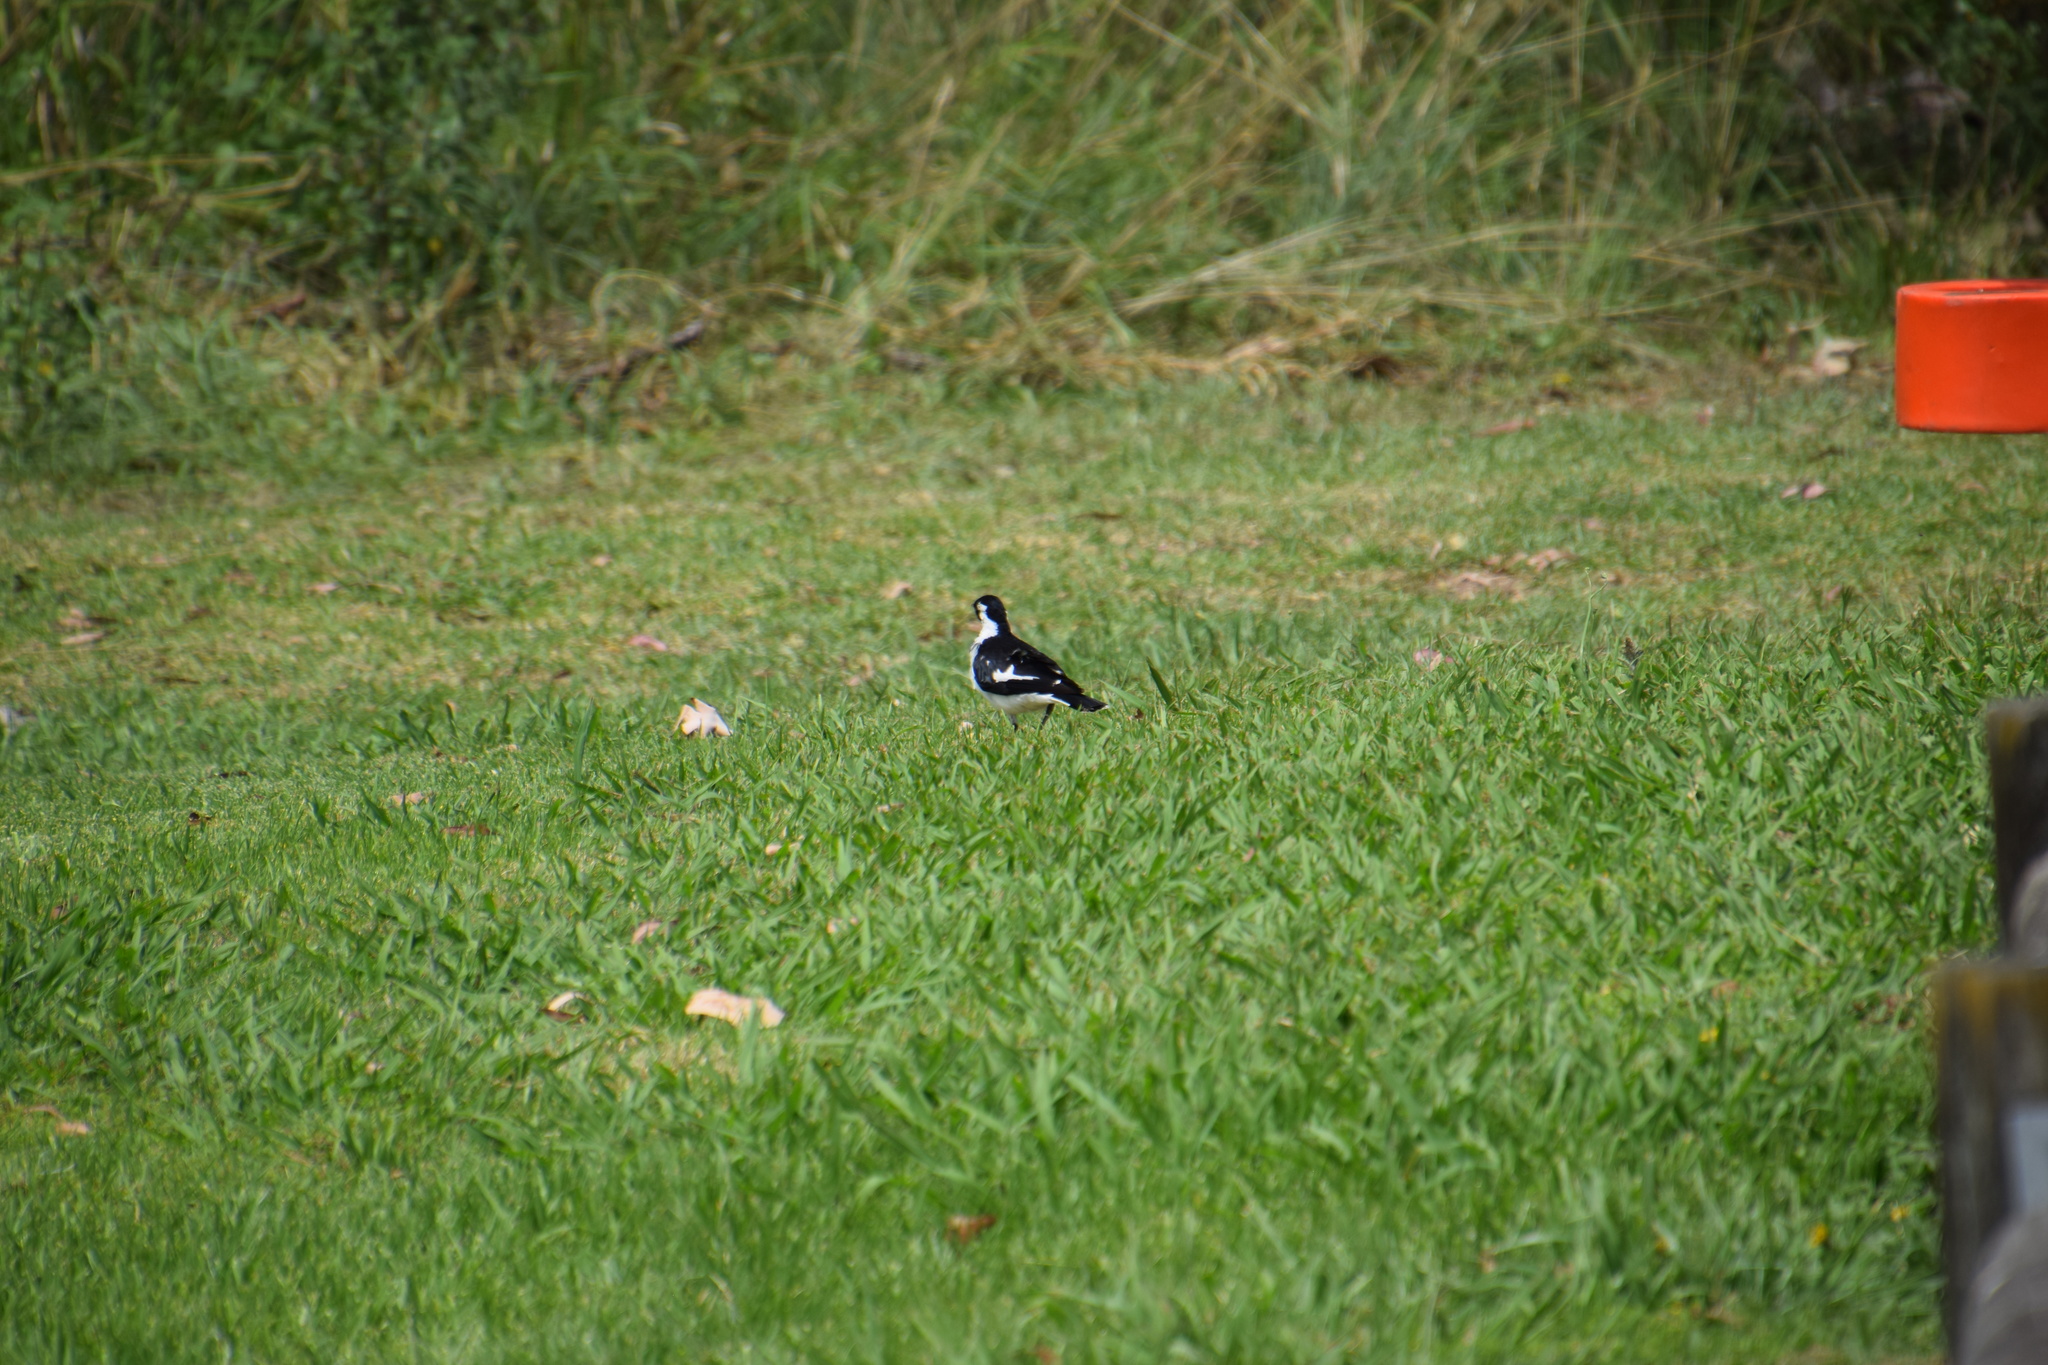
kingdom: Animalia
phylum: Chordata
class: Aves
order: Passeriformes
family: Monarchidae
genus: Grallina
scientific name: Grallina cyanoleuca
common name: Magpie-lark
